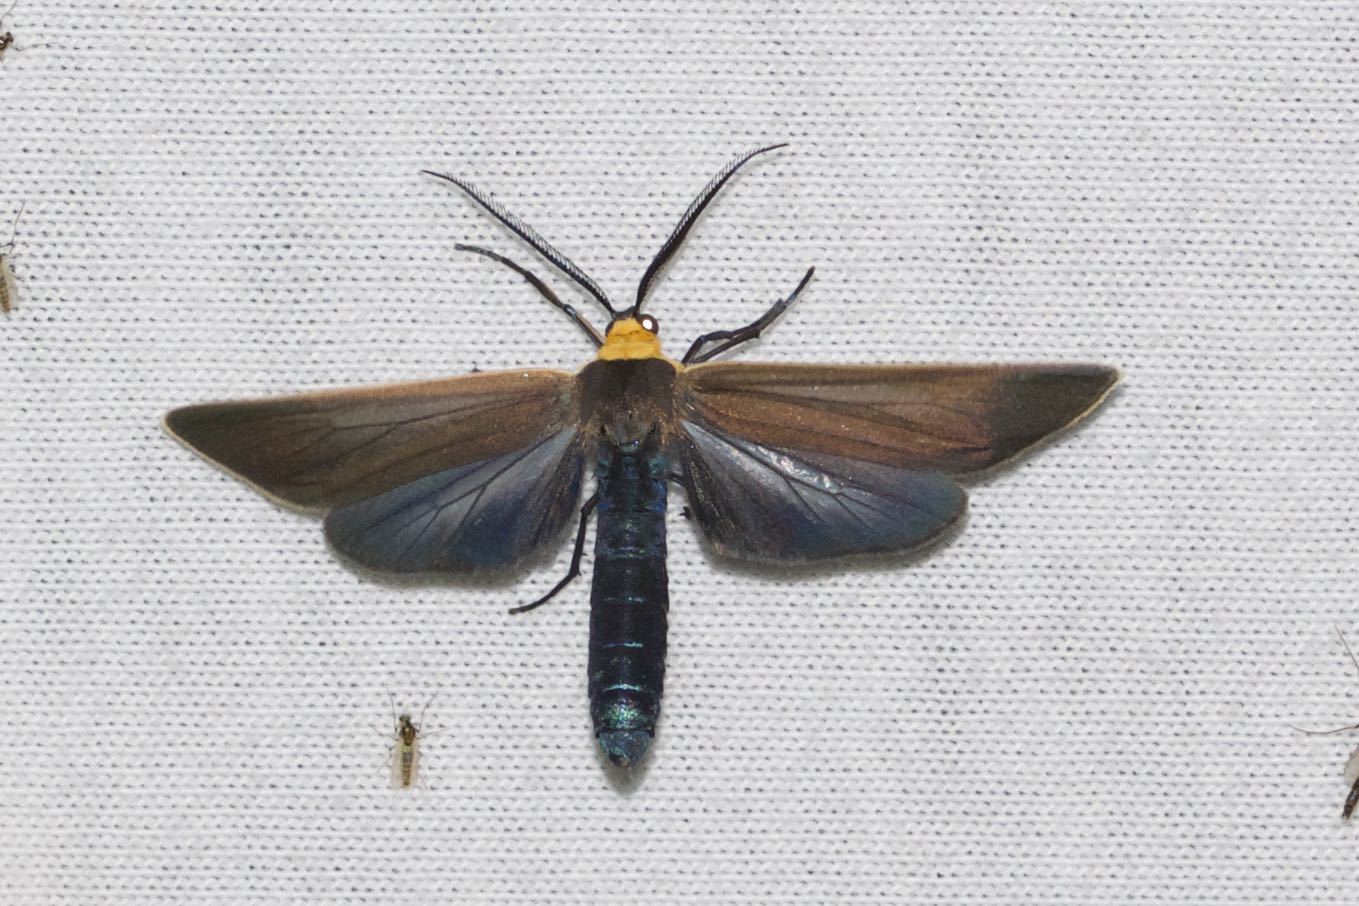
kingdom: Animalia
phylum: Arthropoda
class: Insecta
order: Lepidoptera
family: Erebidae
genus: Cisseps
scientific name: Cisseps fulvicollis
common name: Yellow-collared scape moth
